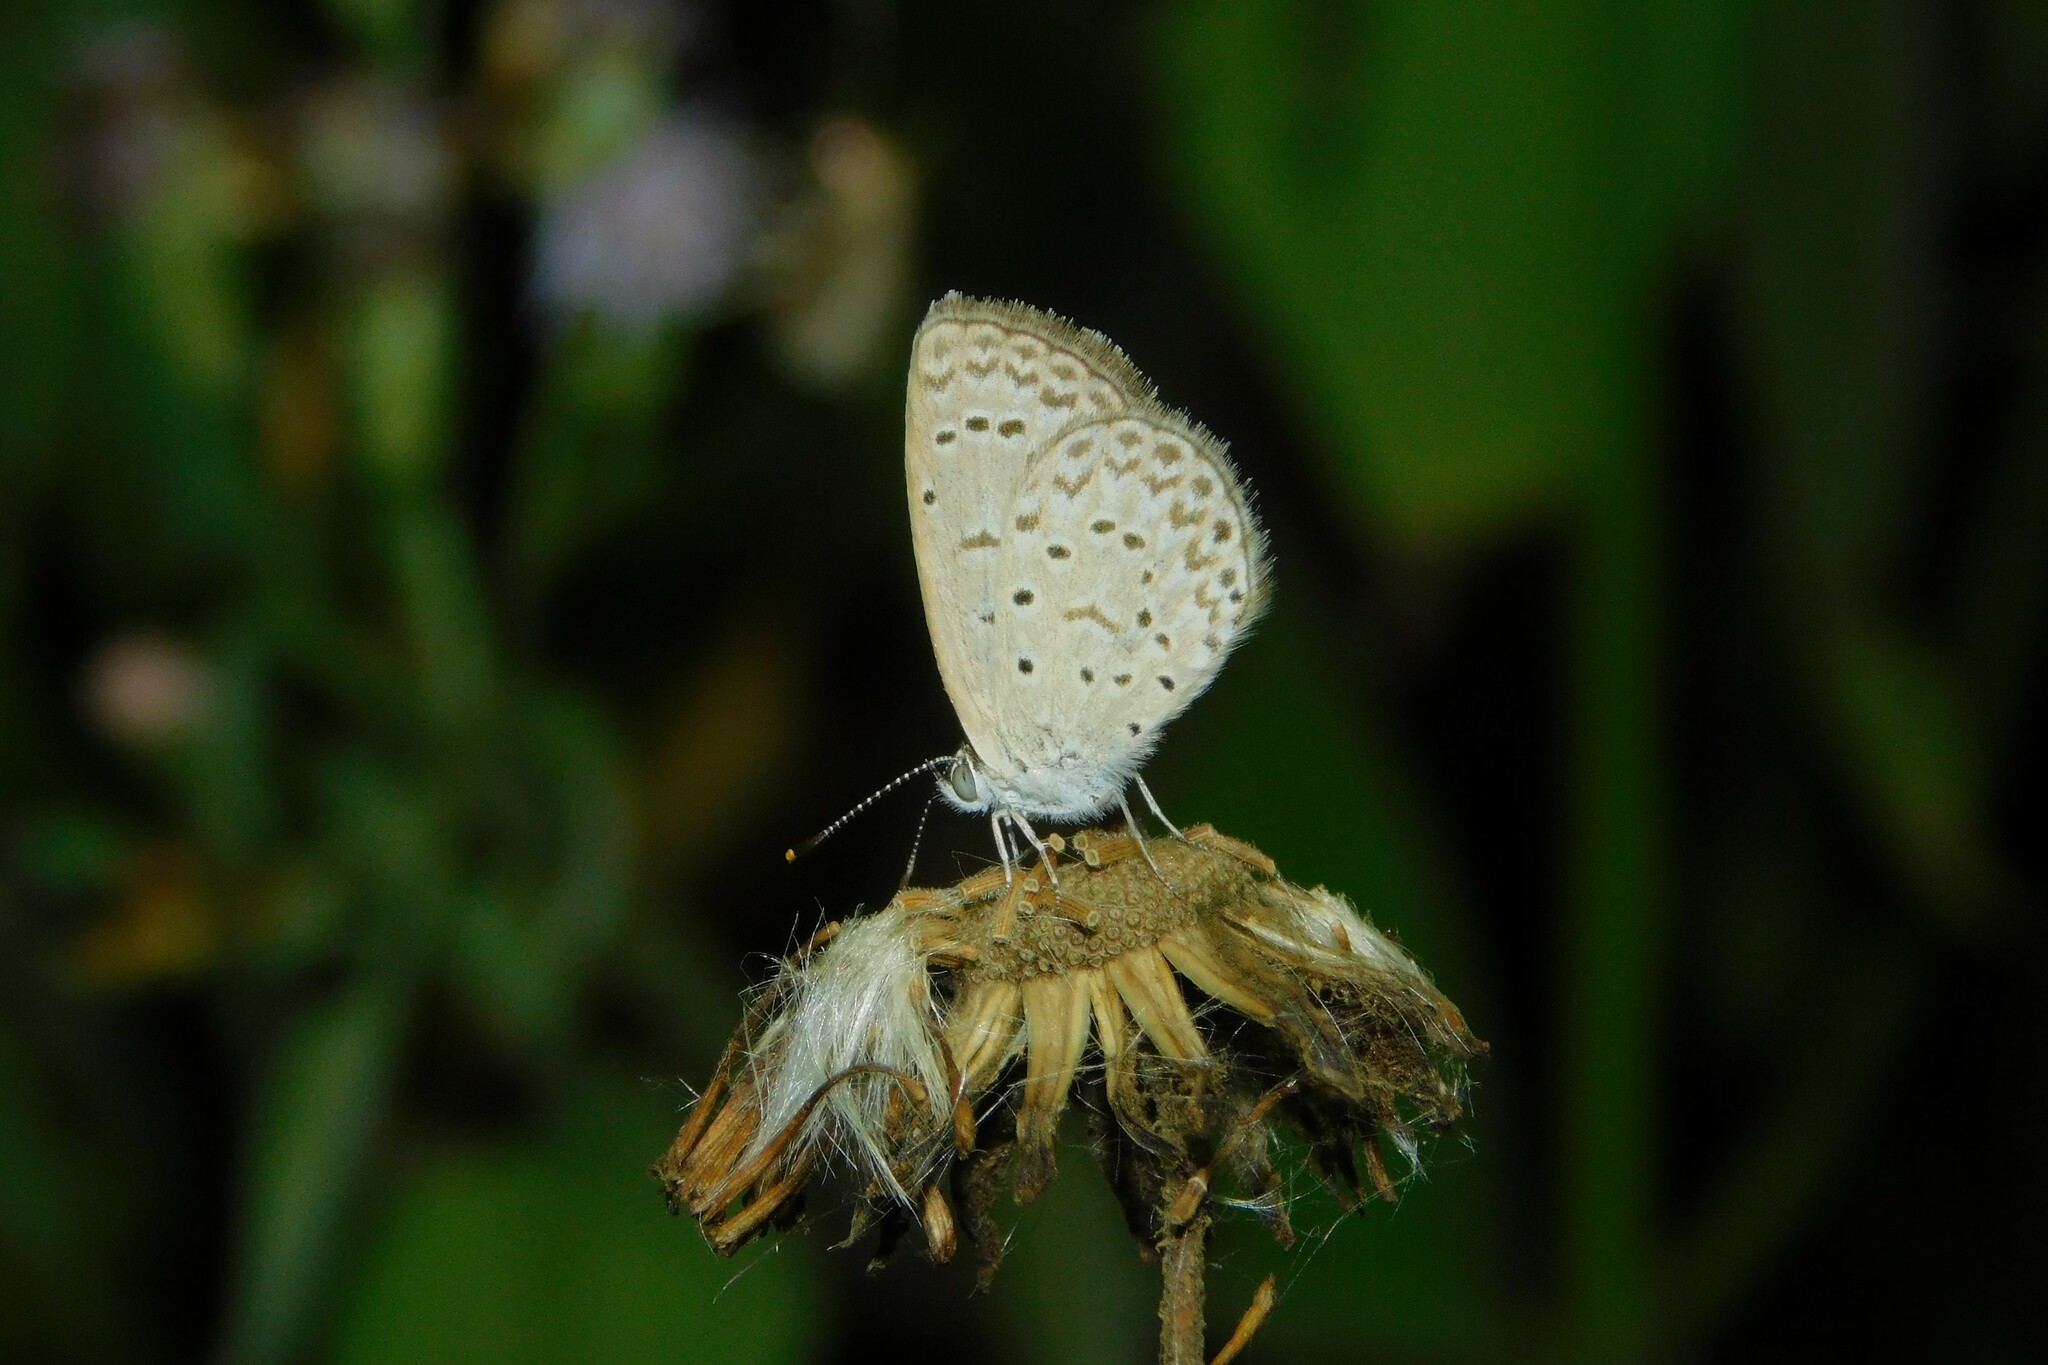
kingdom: Animalia
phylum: Arthropoda
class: Insecta
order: Lepidoptera
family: Lycaenidae
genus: Zizeeria
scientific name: Zizeeria knysna
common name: African grass blue
